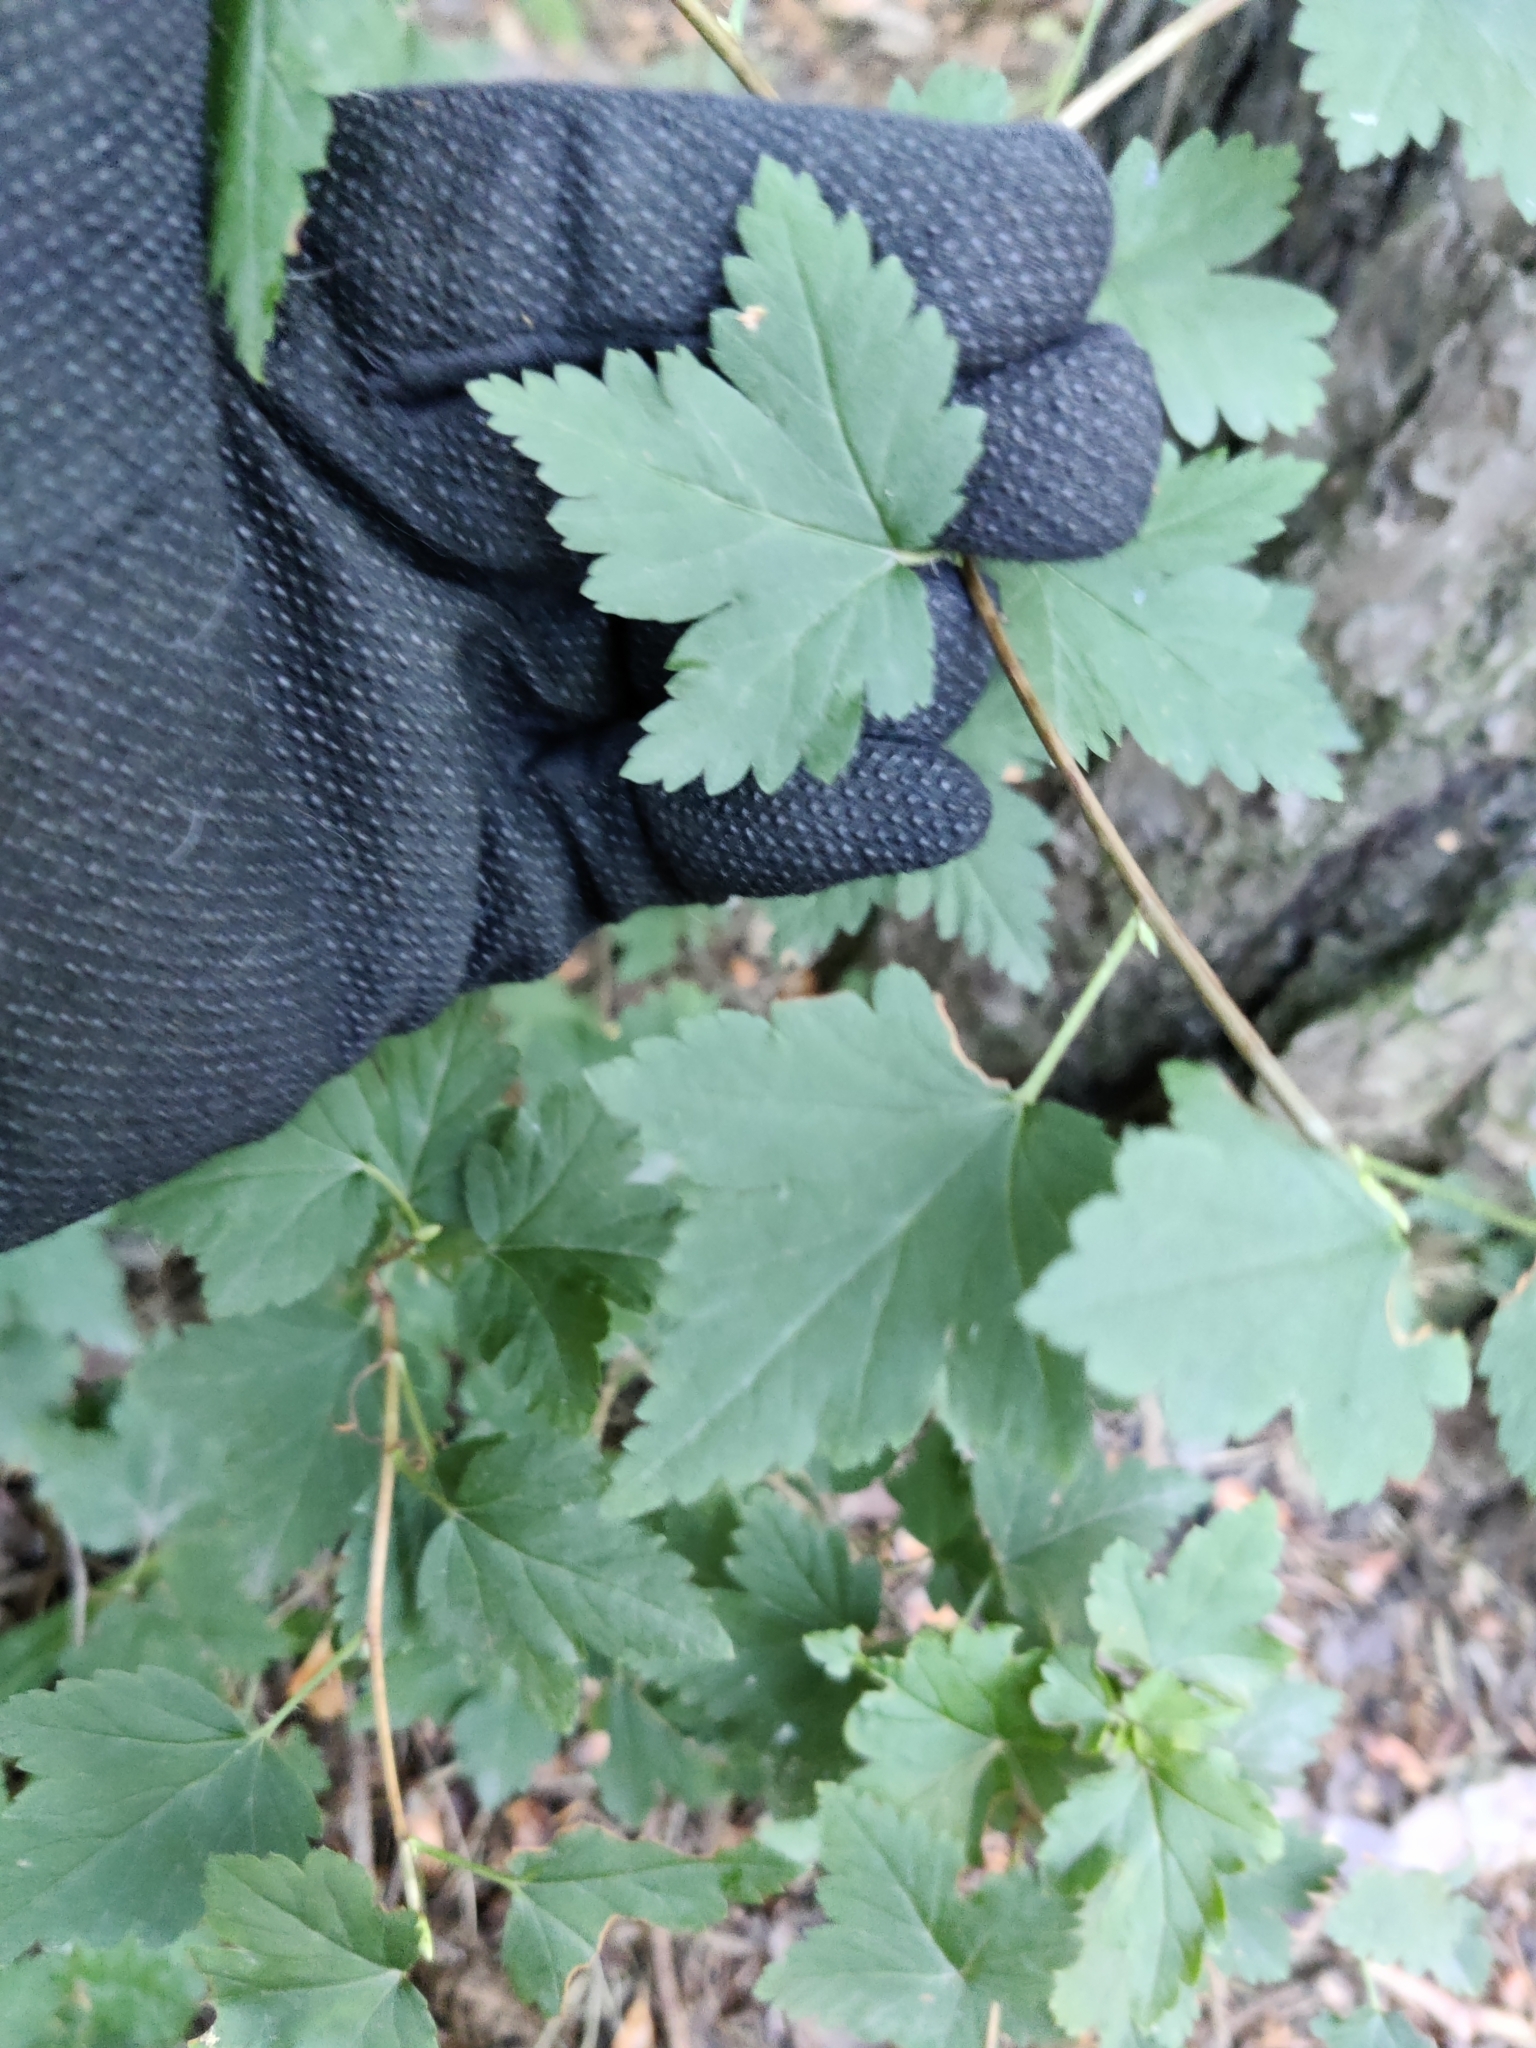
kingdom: Plantae
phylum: Tracheophyta
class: Magnoliopsida
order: Saxifragales
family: Grossulariaceae
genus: Ribes
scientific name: Ribes alpinum
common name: Alpine currant
